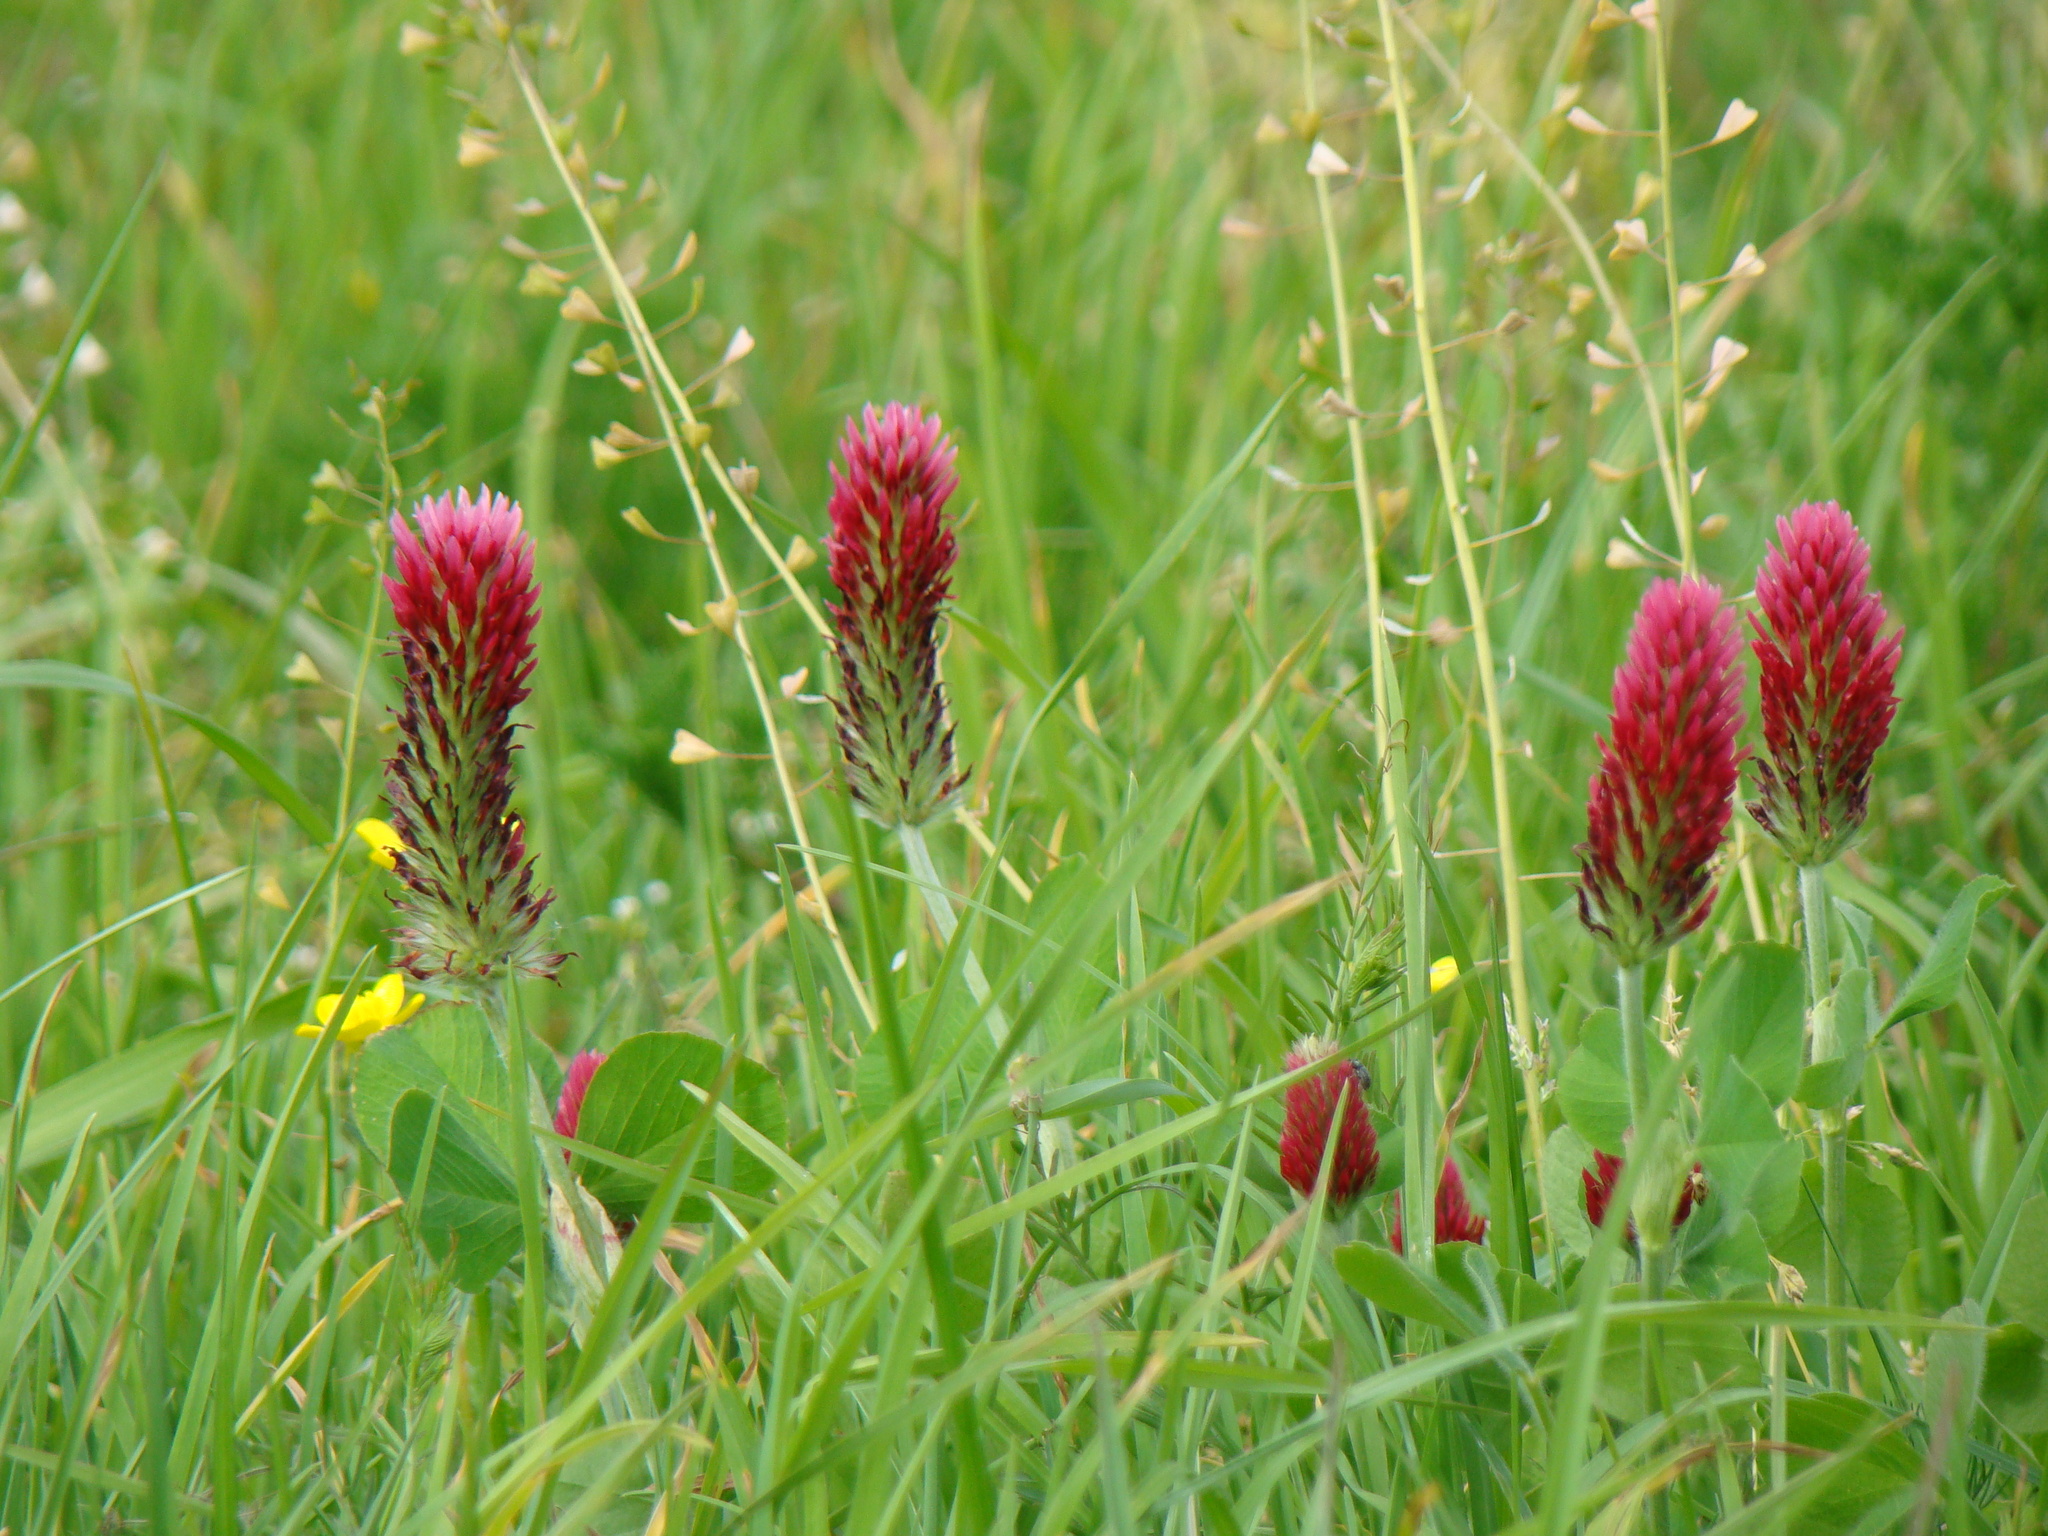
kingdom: Plantae
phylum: Tracheophyta
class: Magnoliopsida
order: Fabales
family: Fabaceae
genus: Trifolium
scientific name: Trifolium incarnatum
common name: Crimson clover
